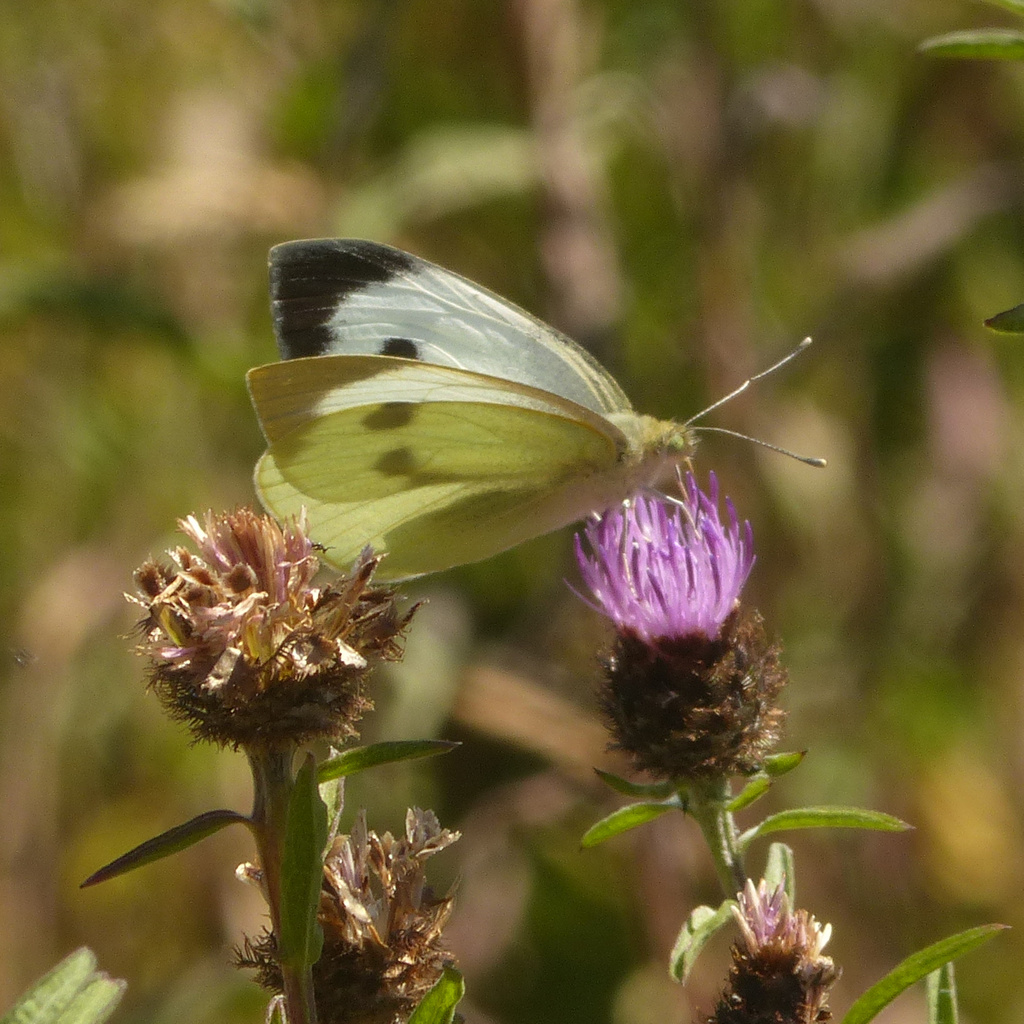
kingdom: Animalia
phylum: Arthropoda
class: Insecta
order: Lepidoptera
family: Pieridae
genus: Pieris
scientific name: Pieris brassicae
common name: Large white
